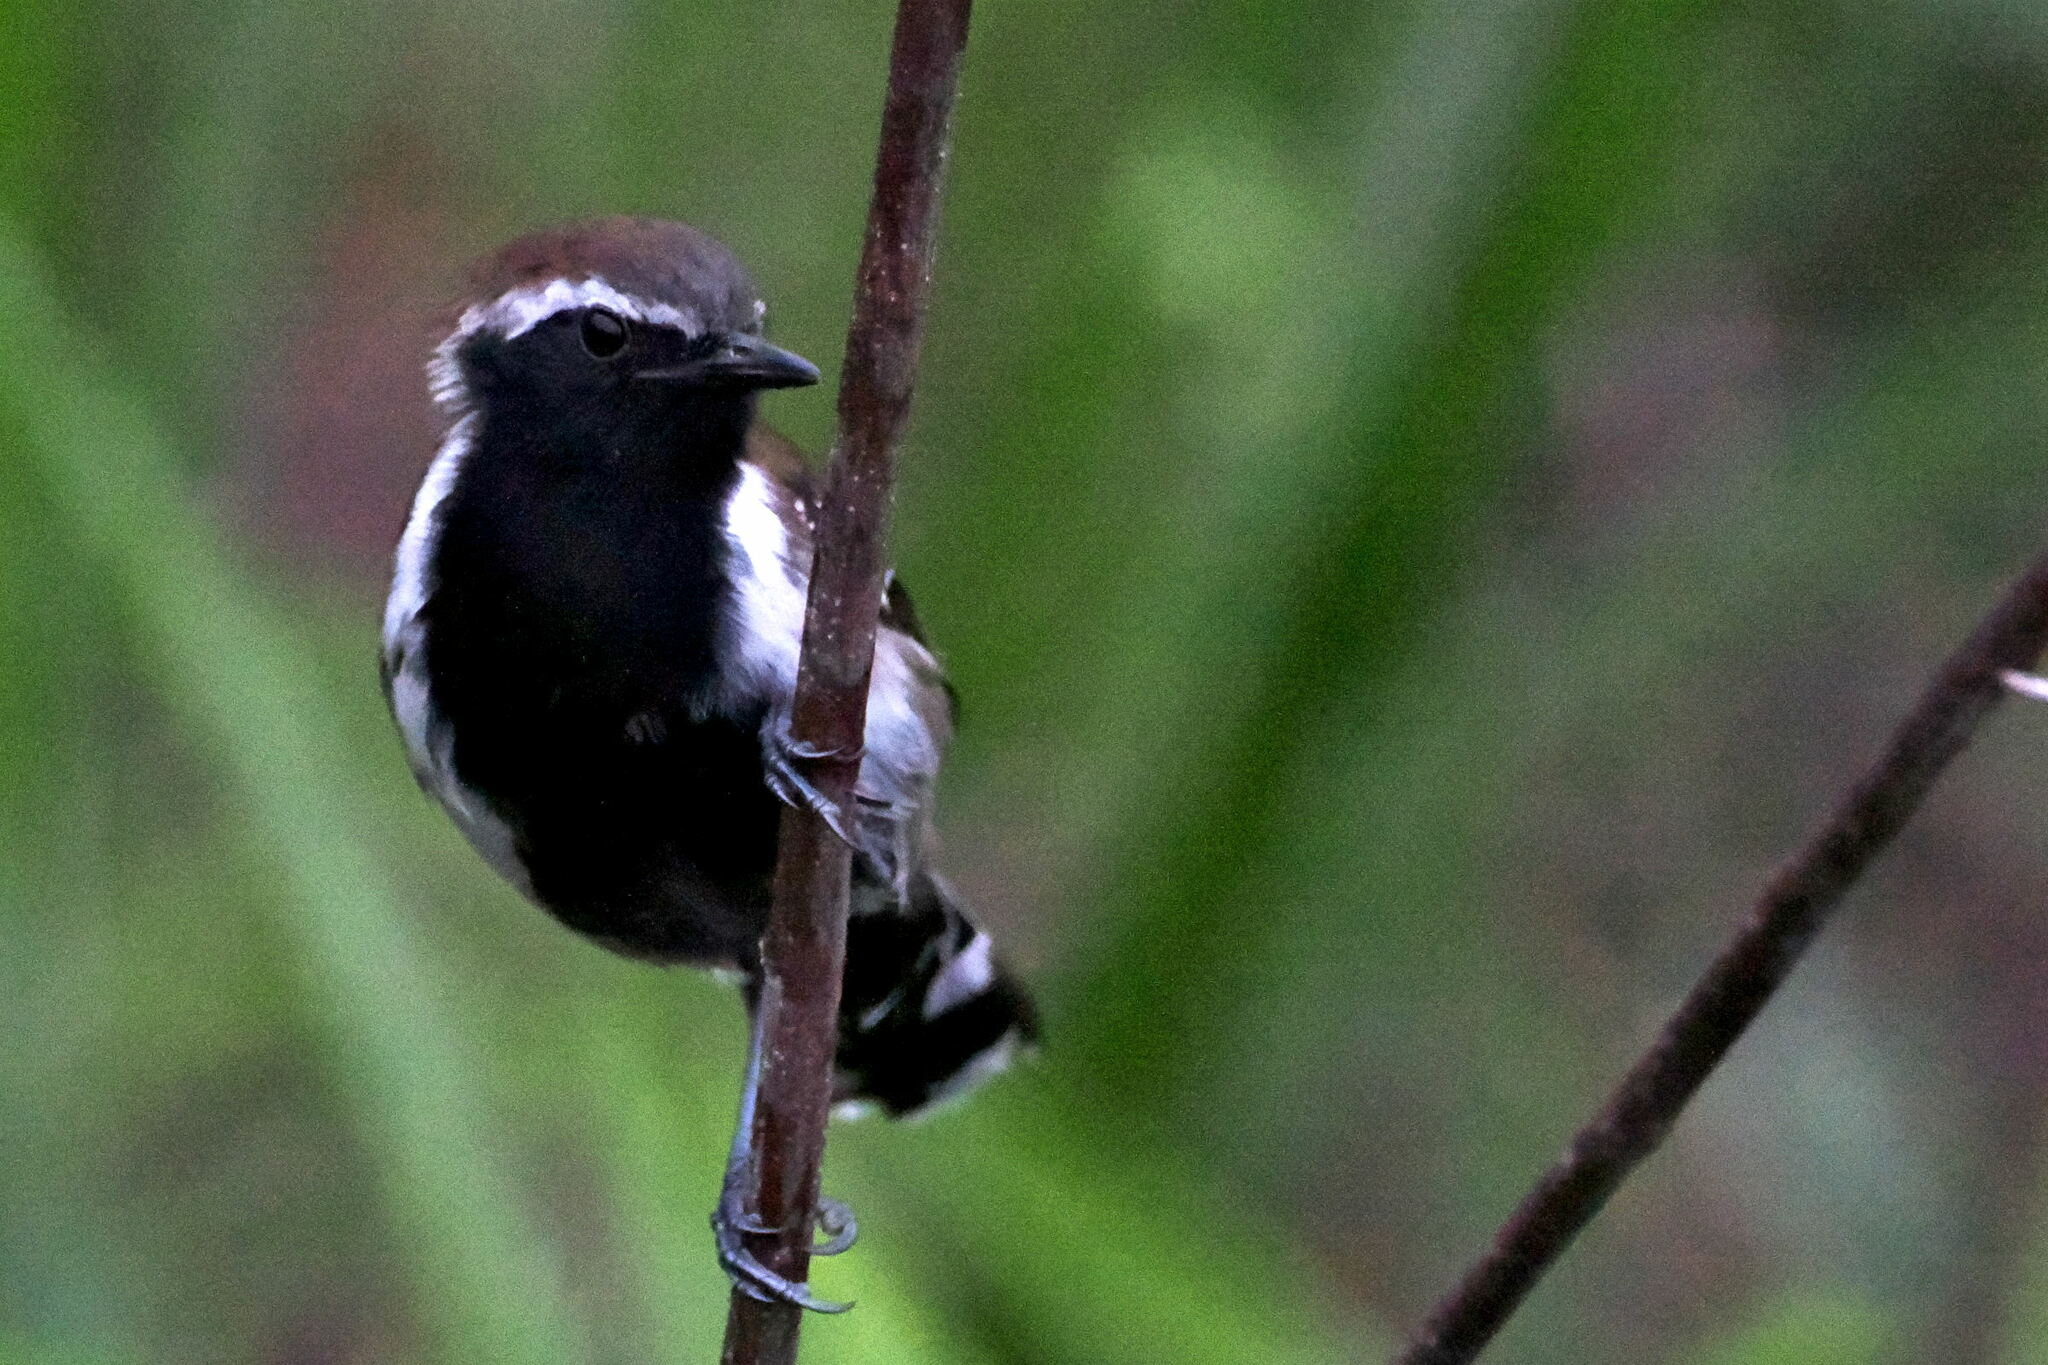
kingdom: Animalia
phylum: Chordata
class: Aves
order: Passeriformes
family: Thamnophilidae
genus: Formicivora
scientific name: Formicivora grantsaui
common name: Sincora antwren
